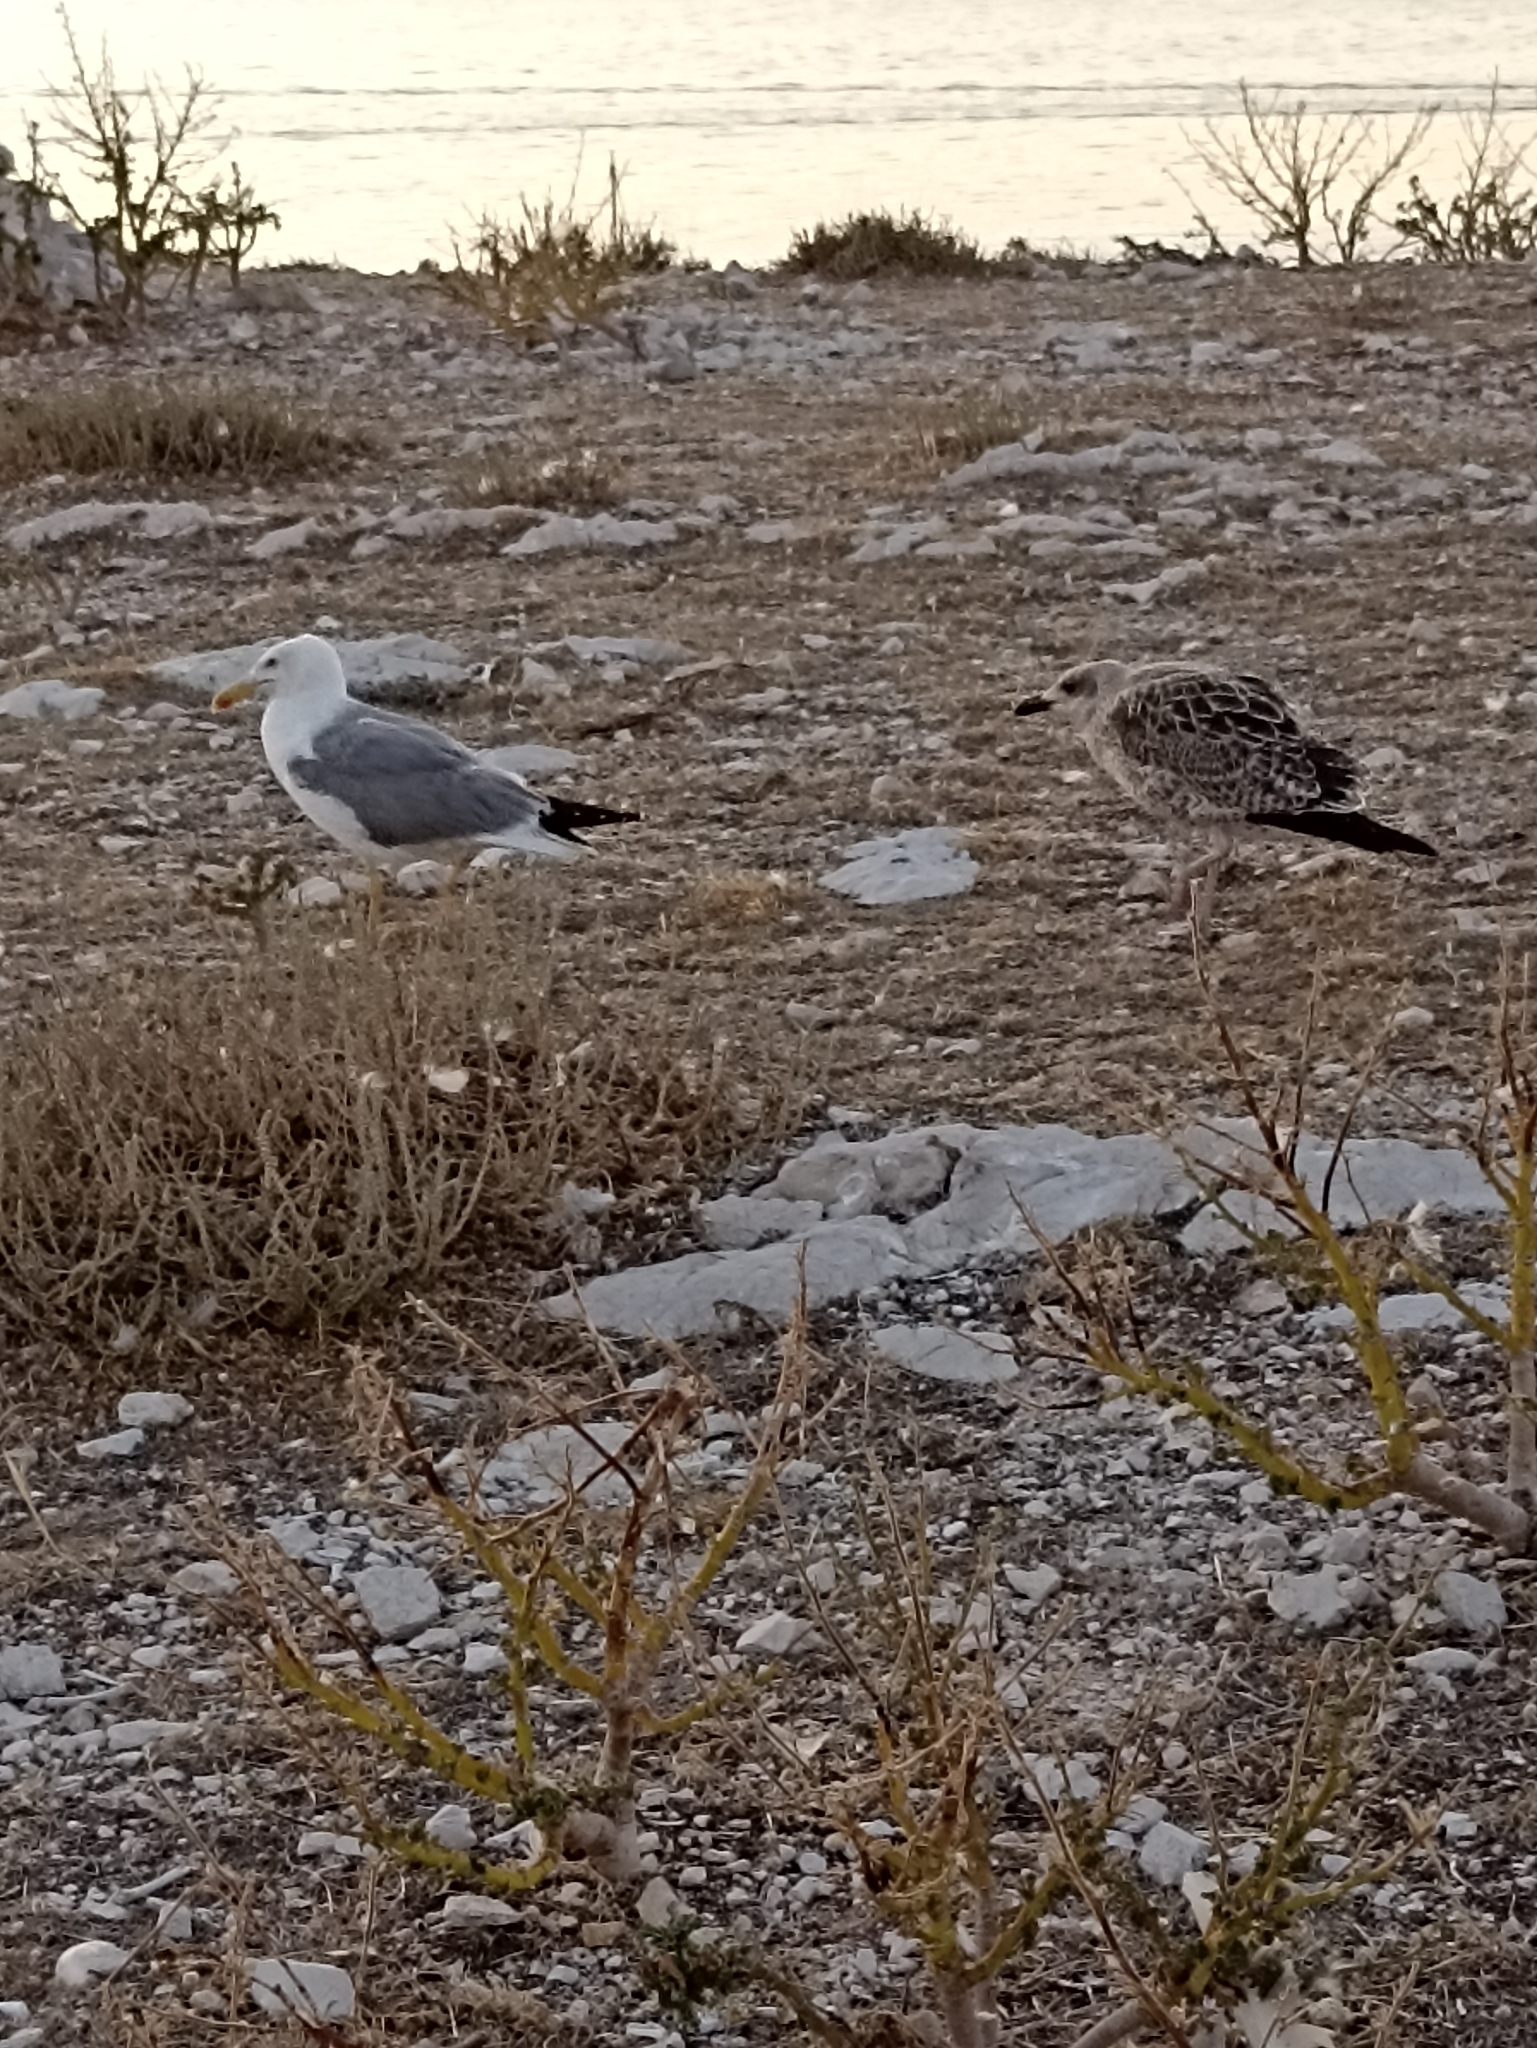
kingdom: Animalia
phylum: Chordata
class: Aves
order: Charadriiformes
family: Laridae
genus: Larus
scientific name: Larus michahellis
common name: Yellow-legged gull
